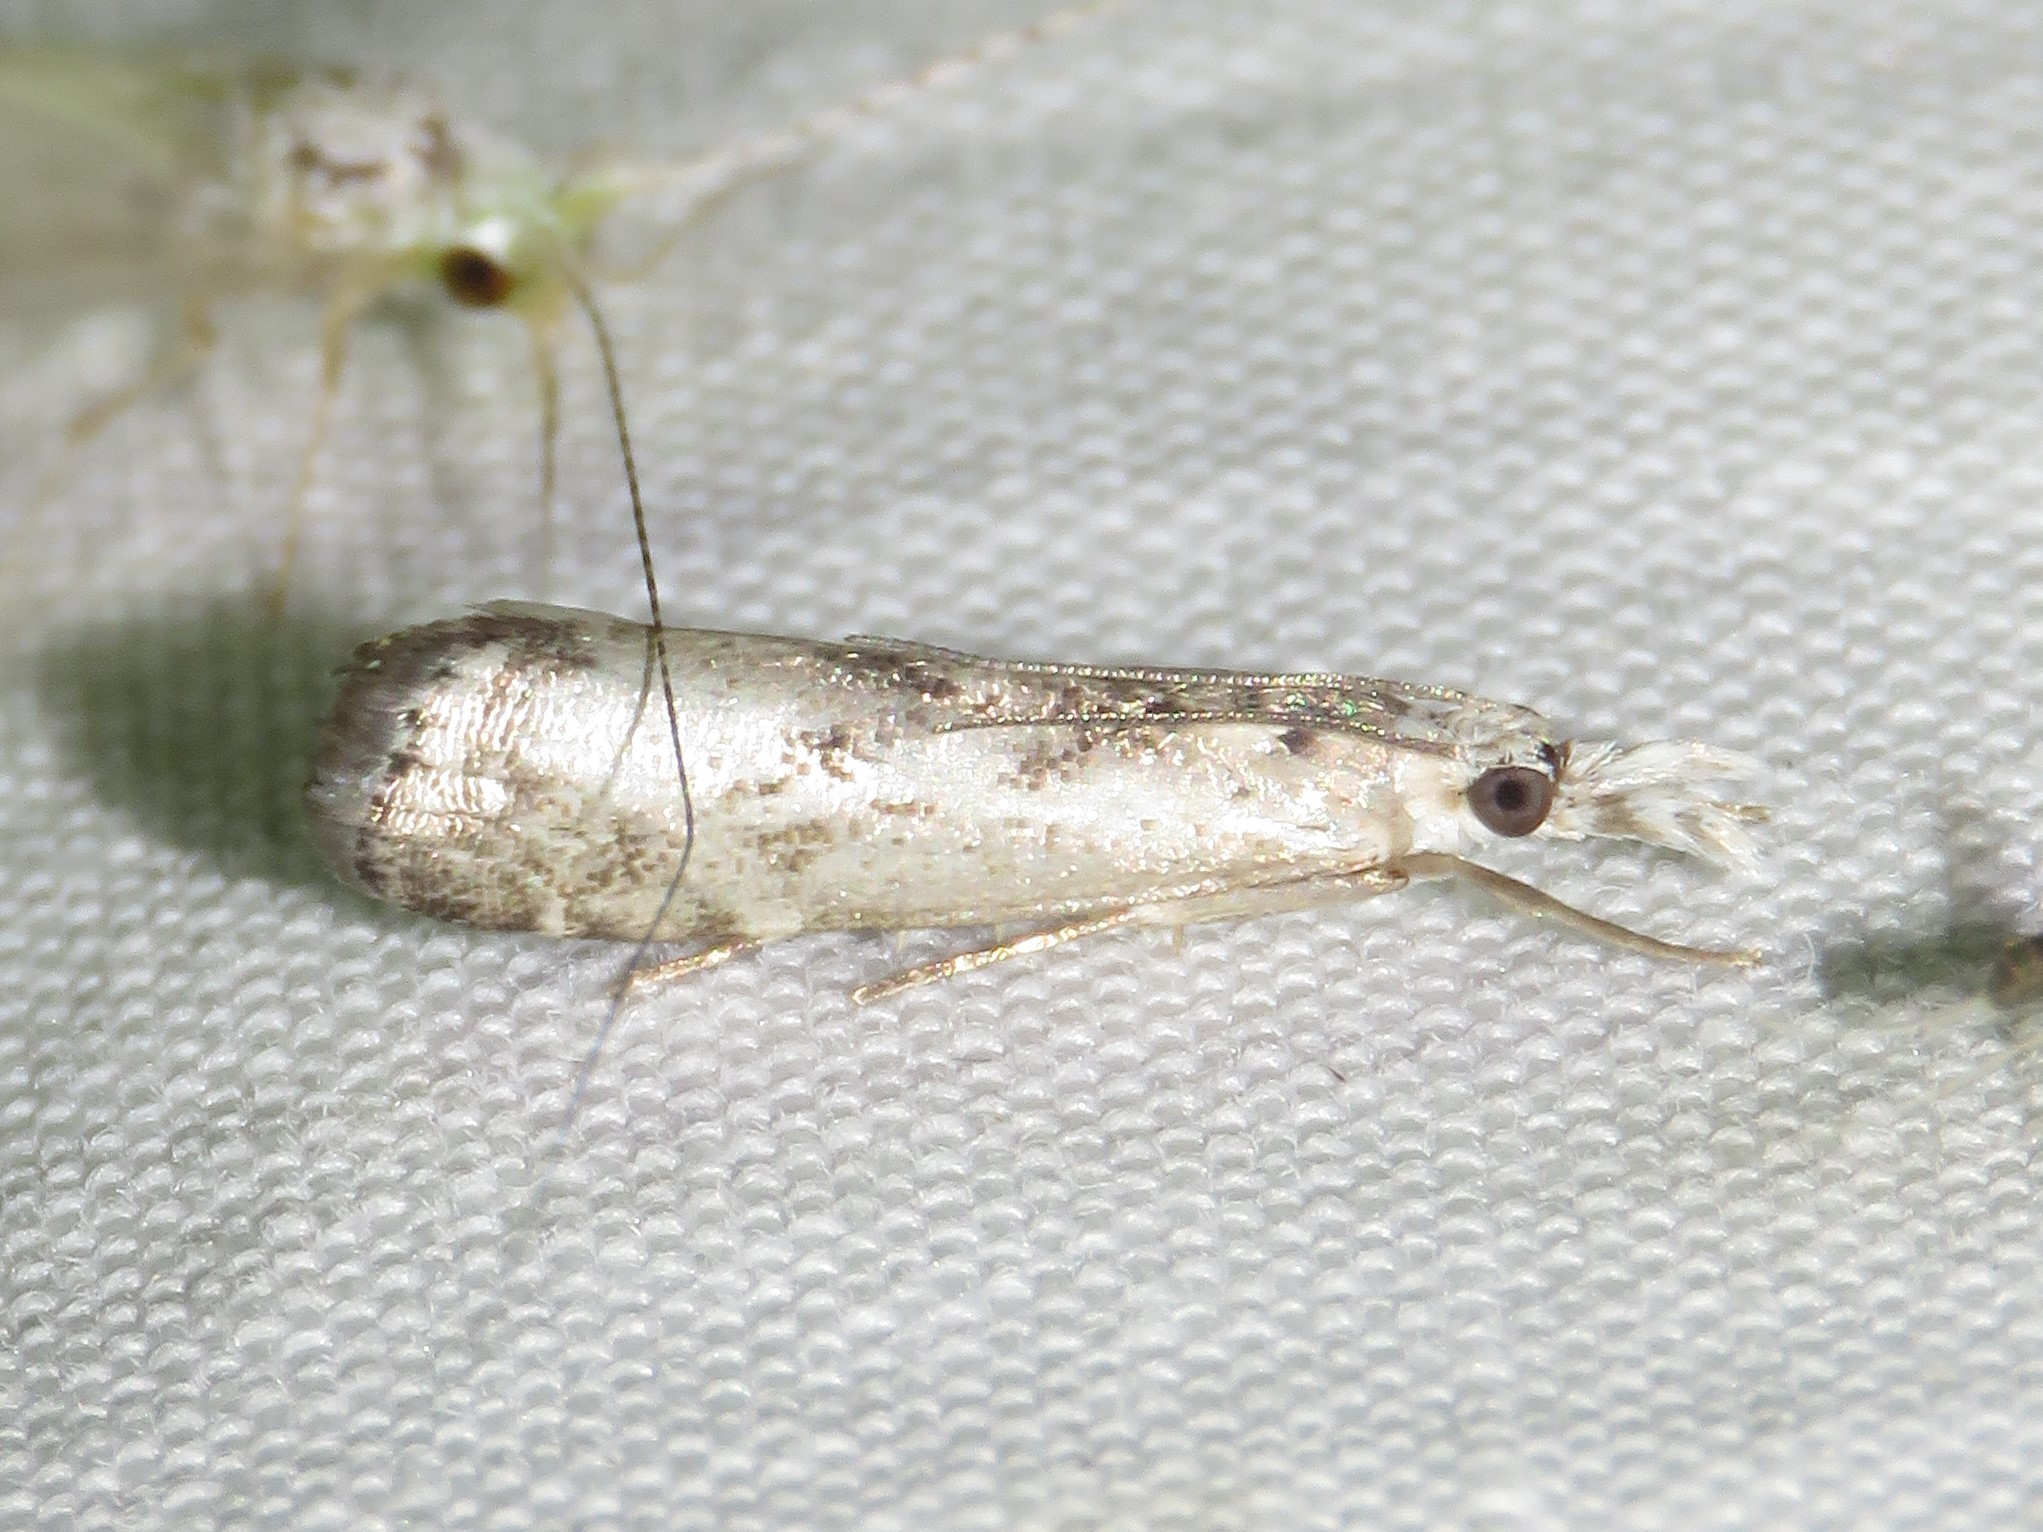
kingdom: Animalia
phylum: Arthropoda
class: Insecta
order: Lepidoptera
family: Crambidae
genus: Microcrambus
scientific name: Microcrambus immunellus
